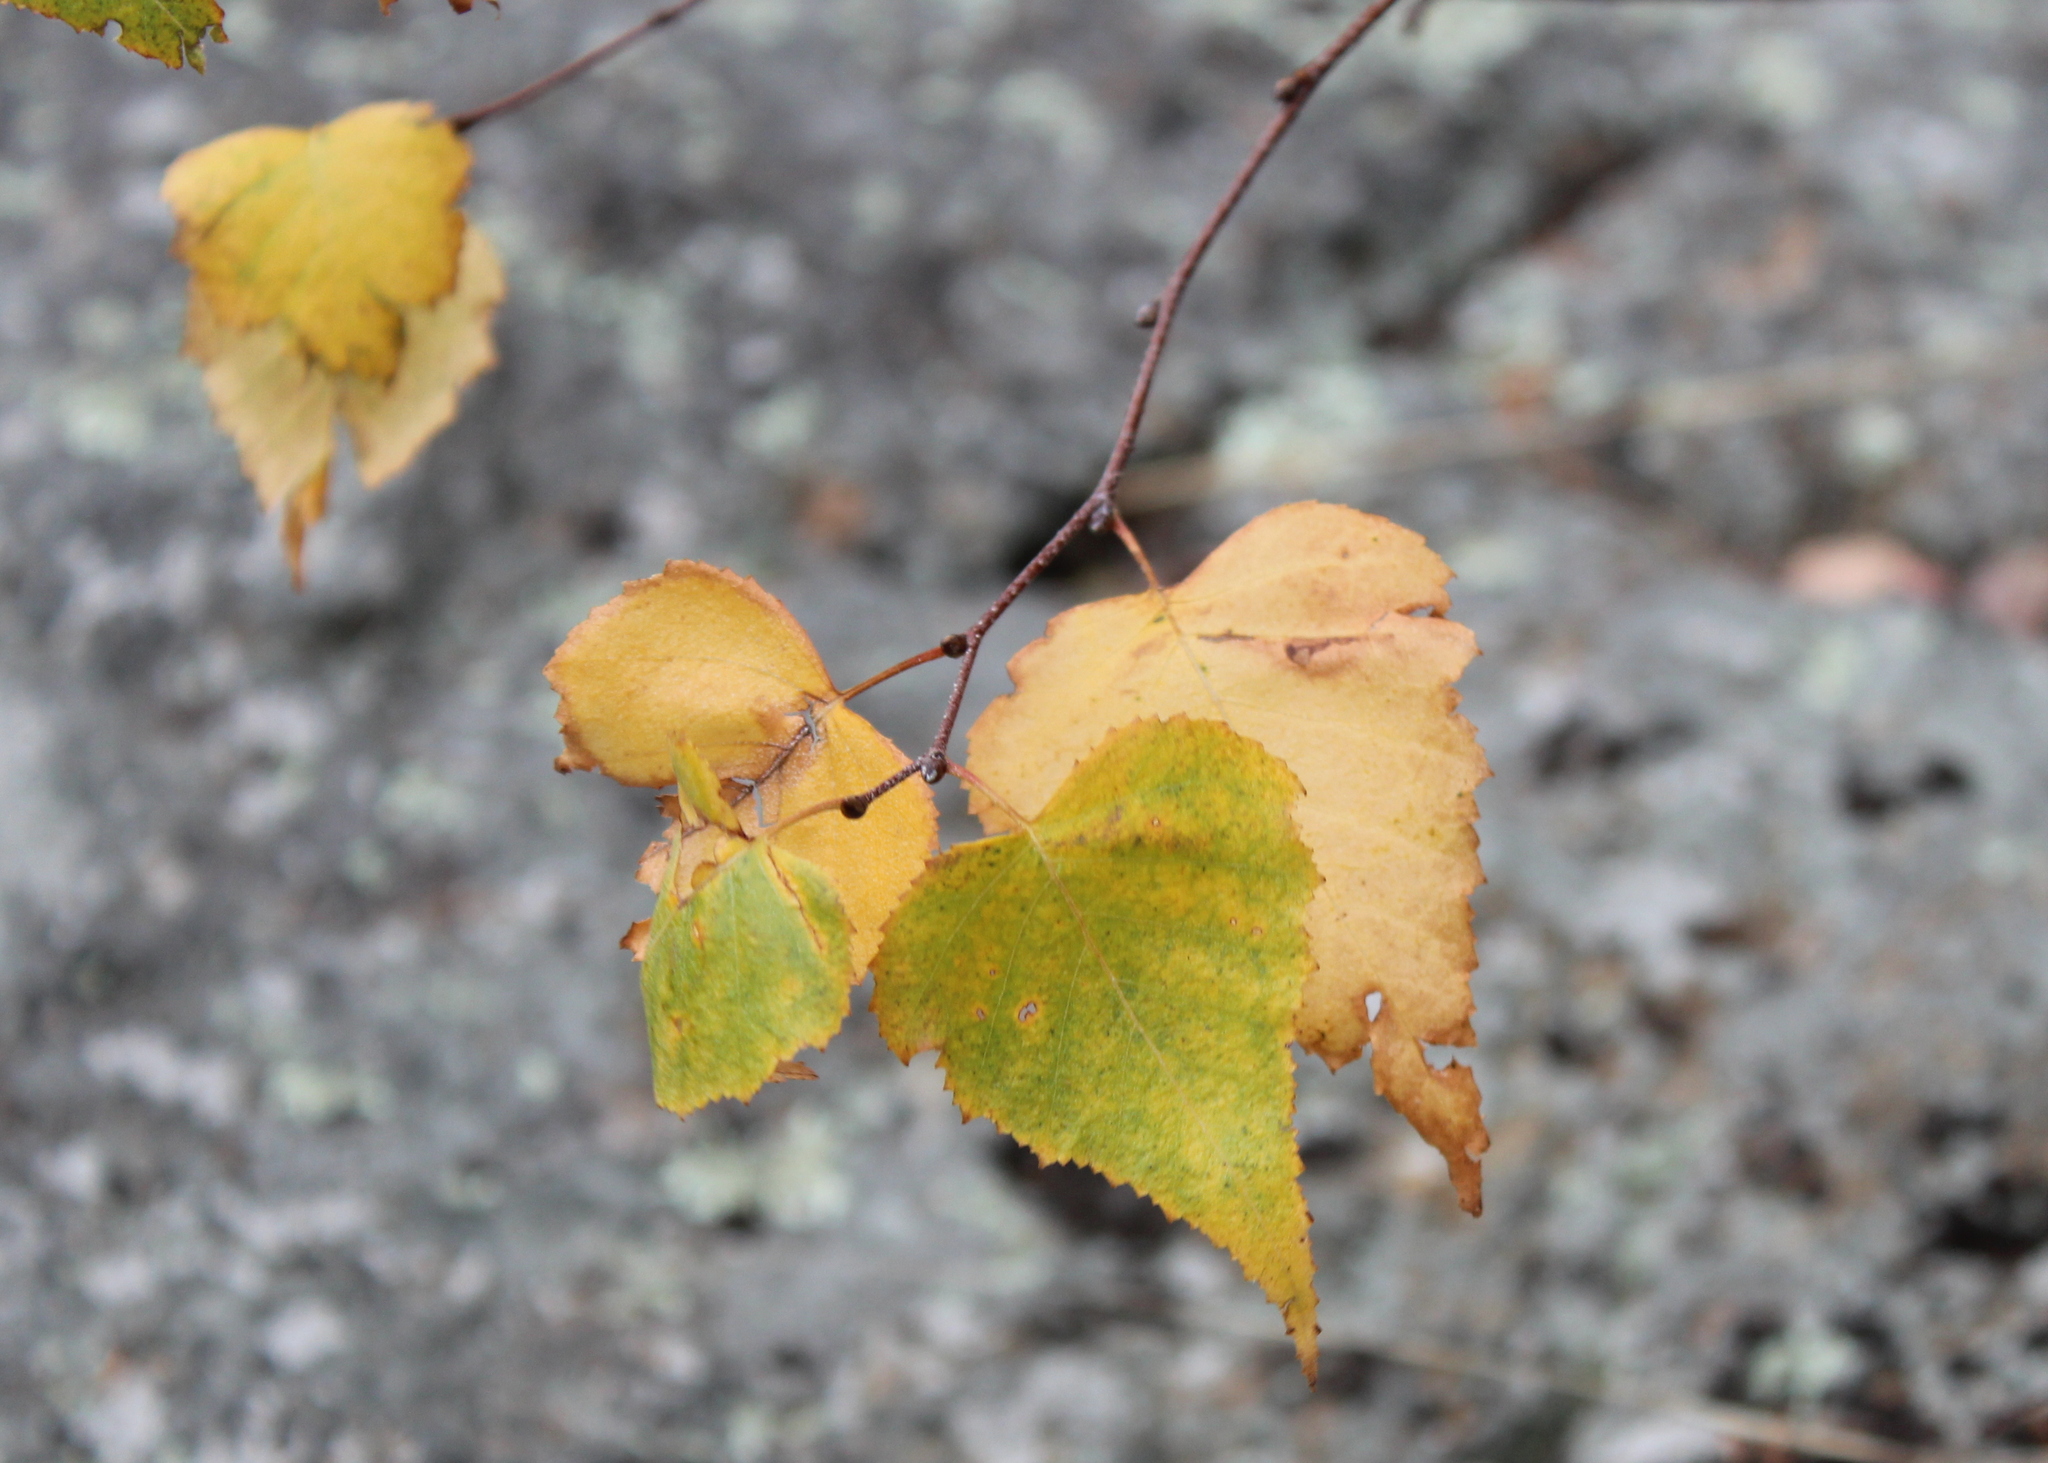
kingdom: Plantae
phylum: Tracheophyta
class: Magnoliopsida
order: Fagales
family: Betulaceae
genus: Betula
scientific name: Betula populifolia
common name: Fire birch
